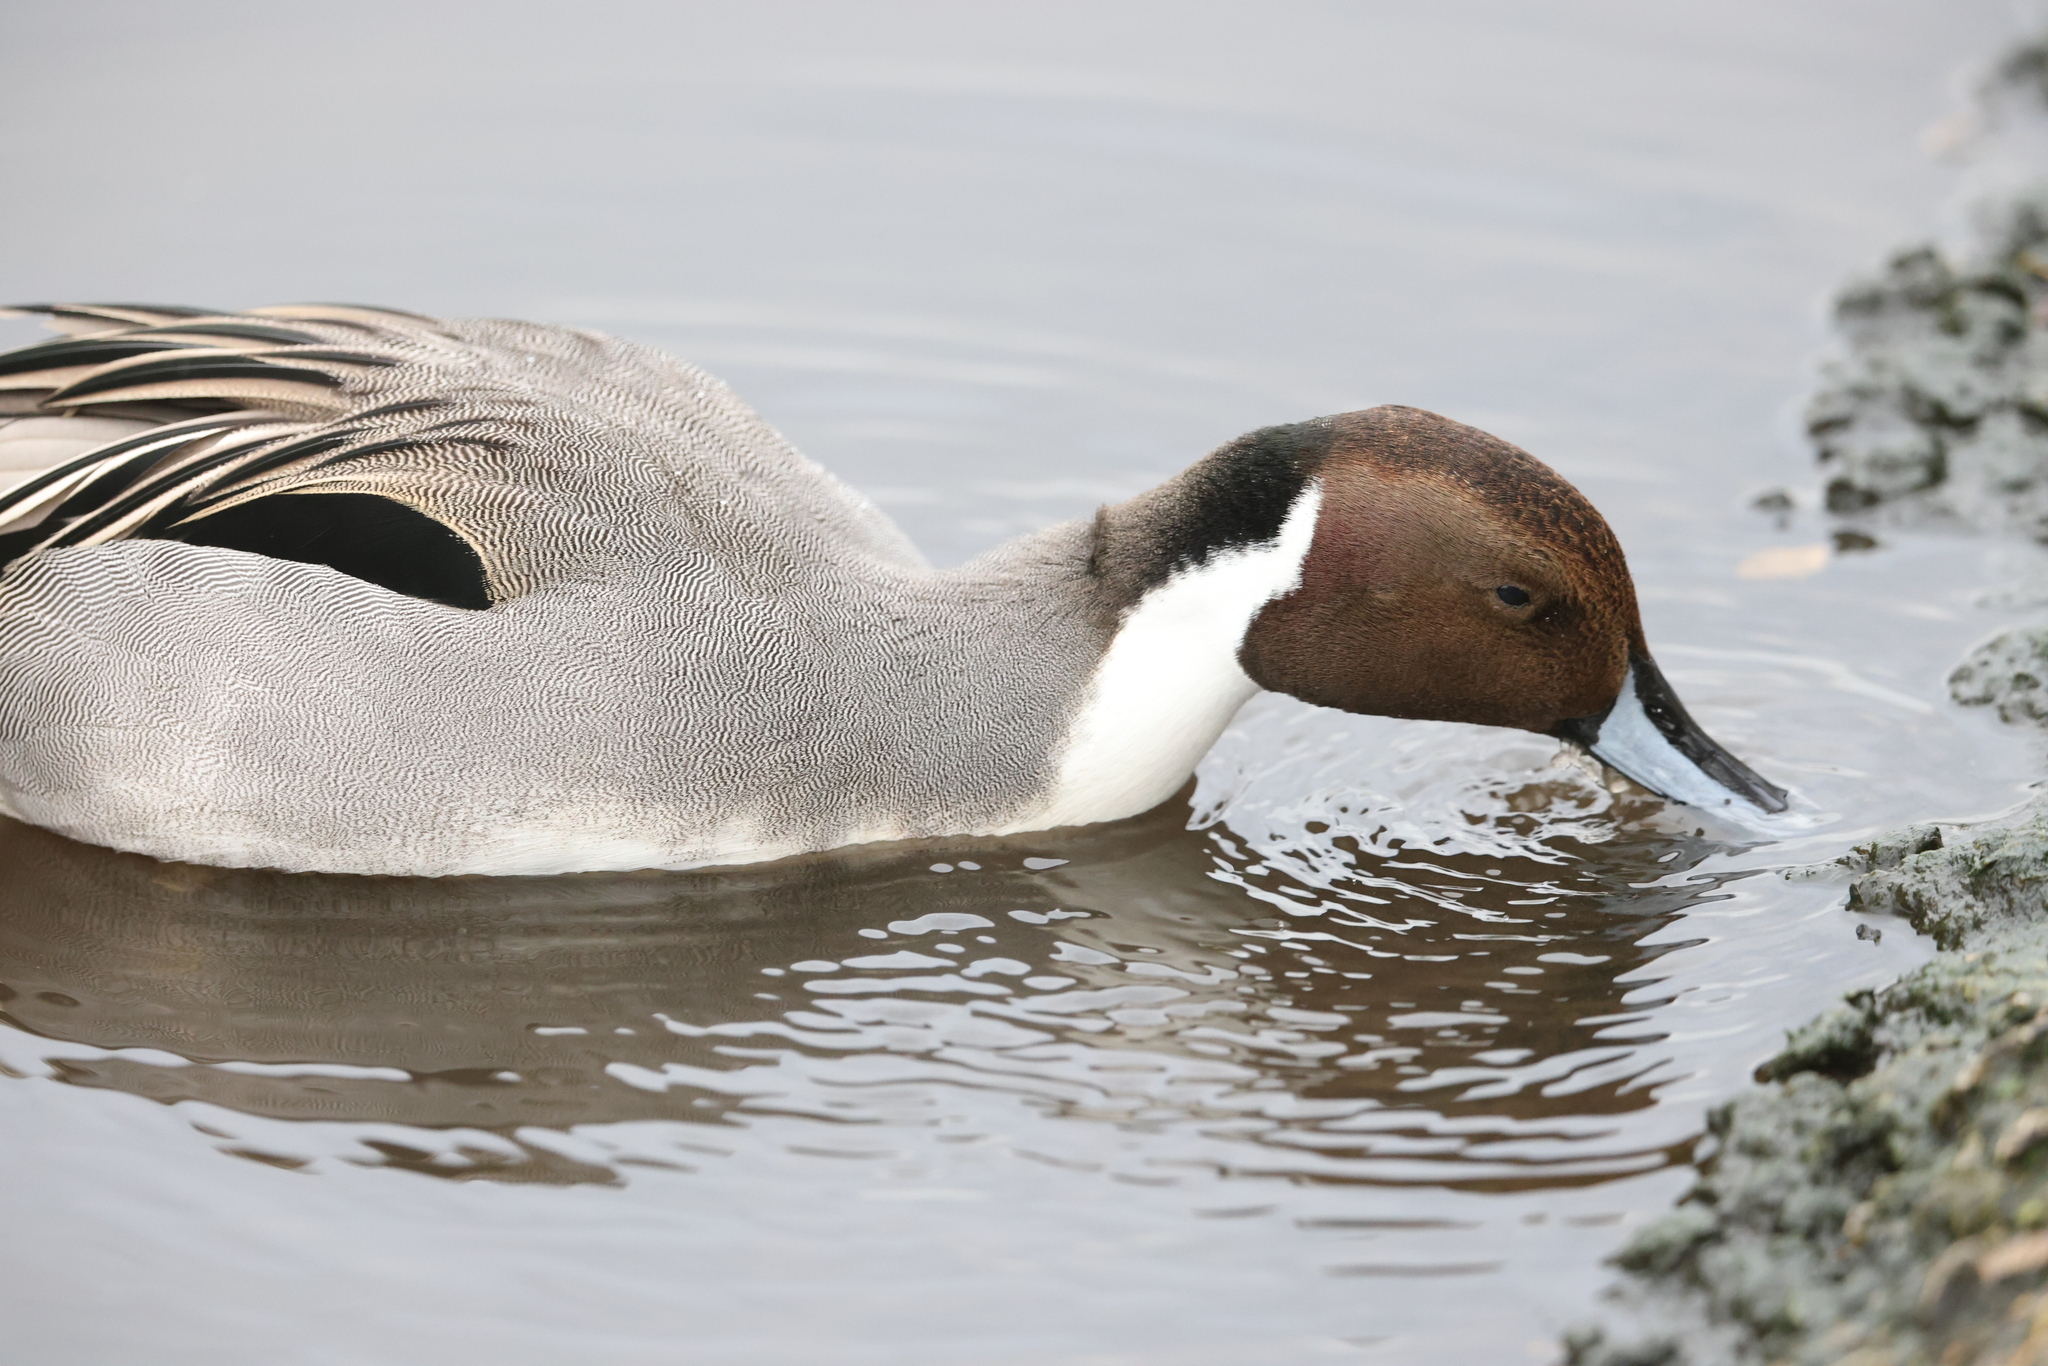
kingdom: Animalia
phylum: Chordata
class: Aves
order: Anseriformes
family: Anatidae
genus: Anas
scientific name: Anas acuta
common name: Northern pintail
